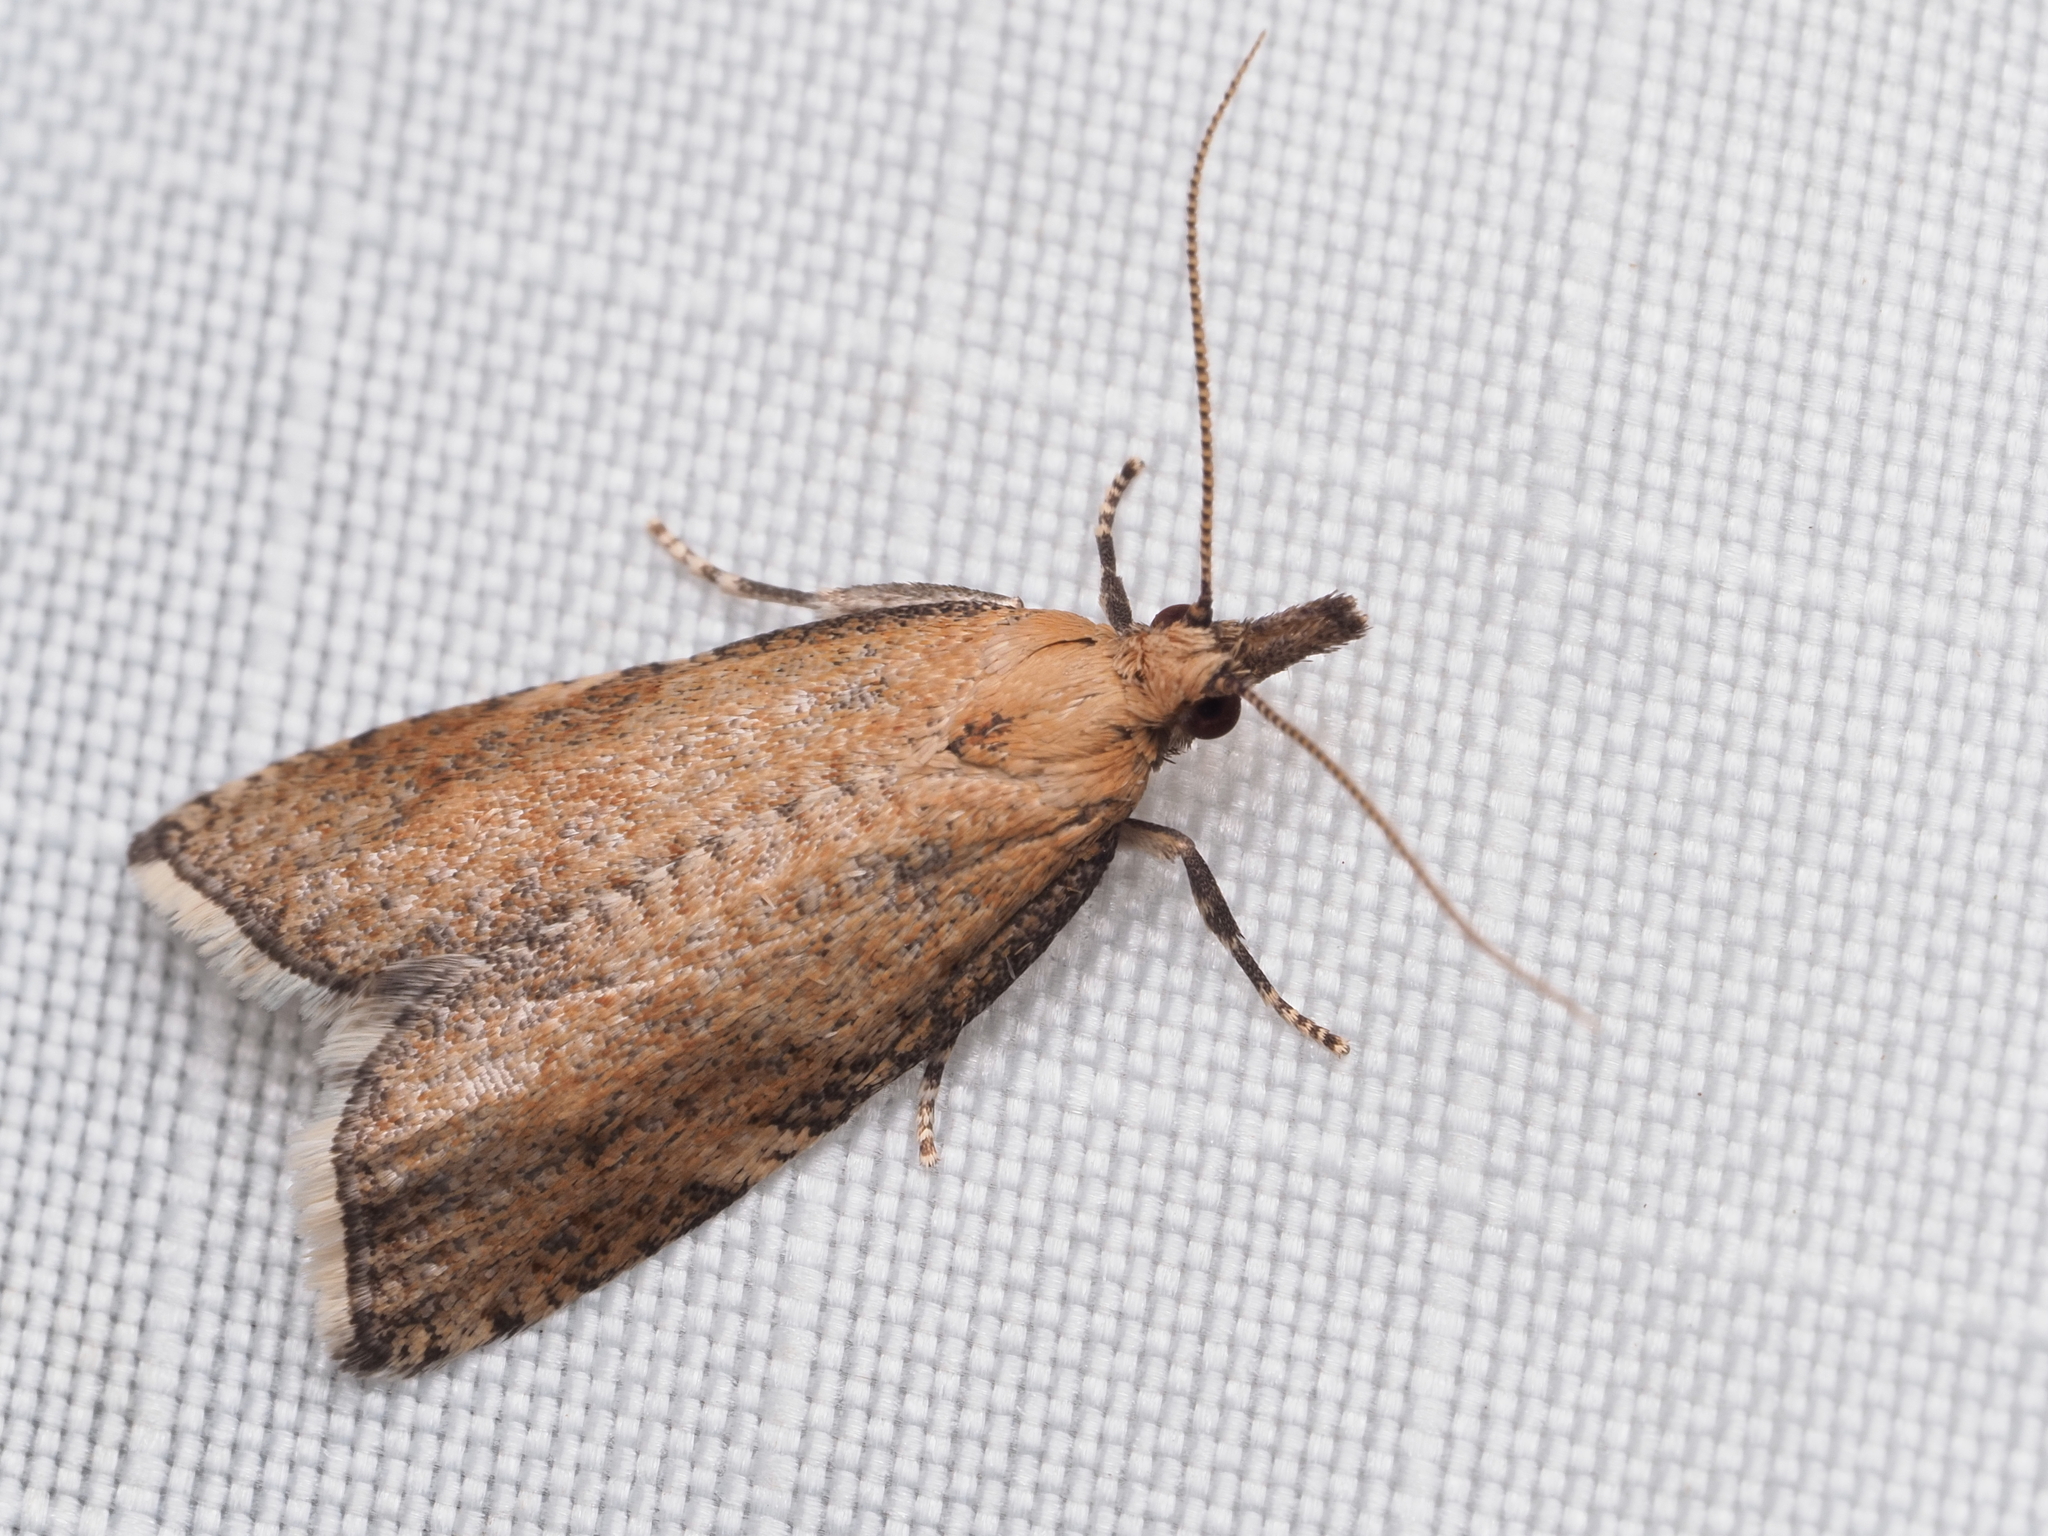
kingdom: Animalia
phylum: Arthropoda
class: Insecta
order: Lepidoptera
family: Tortricidae
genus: Catamacta
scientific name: Catamacta lotinana
